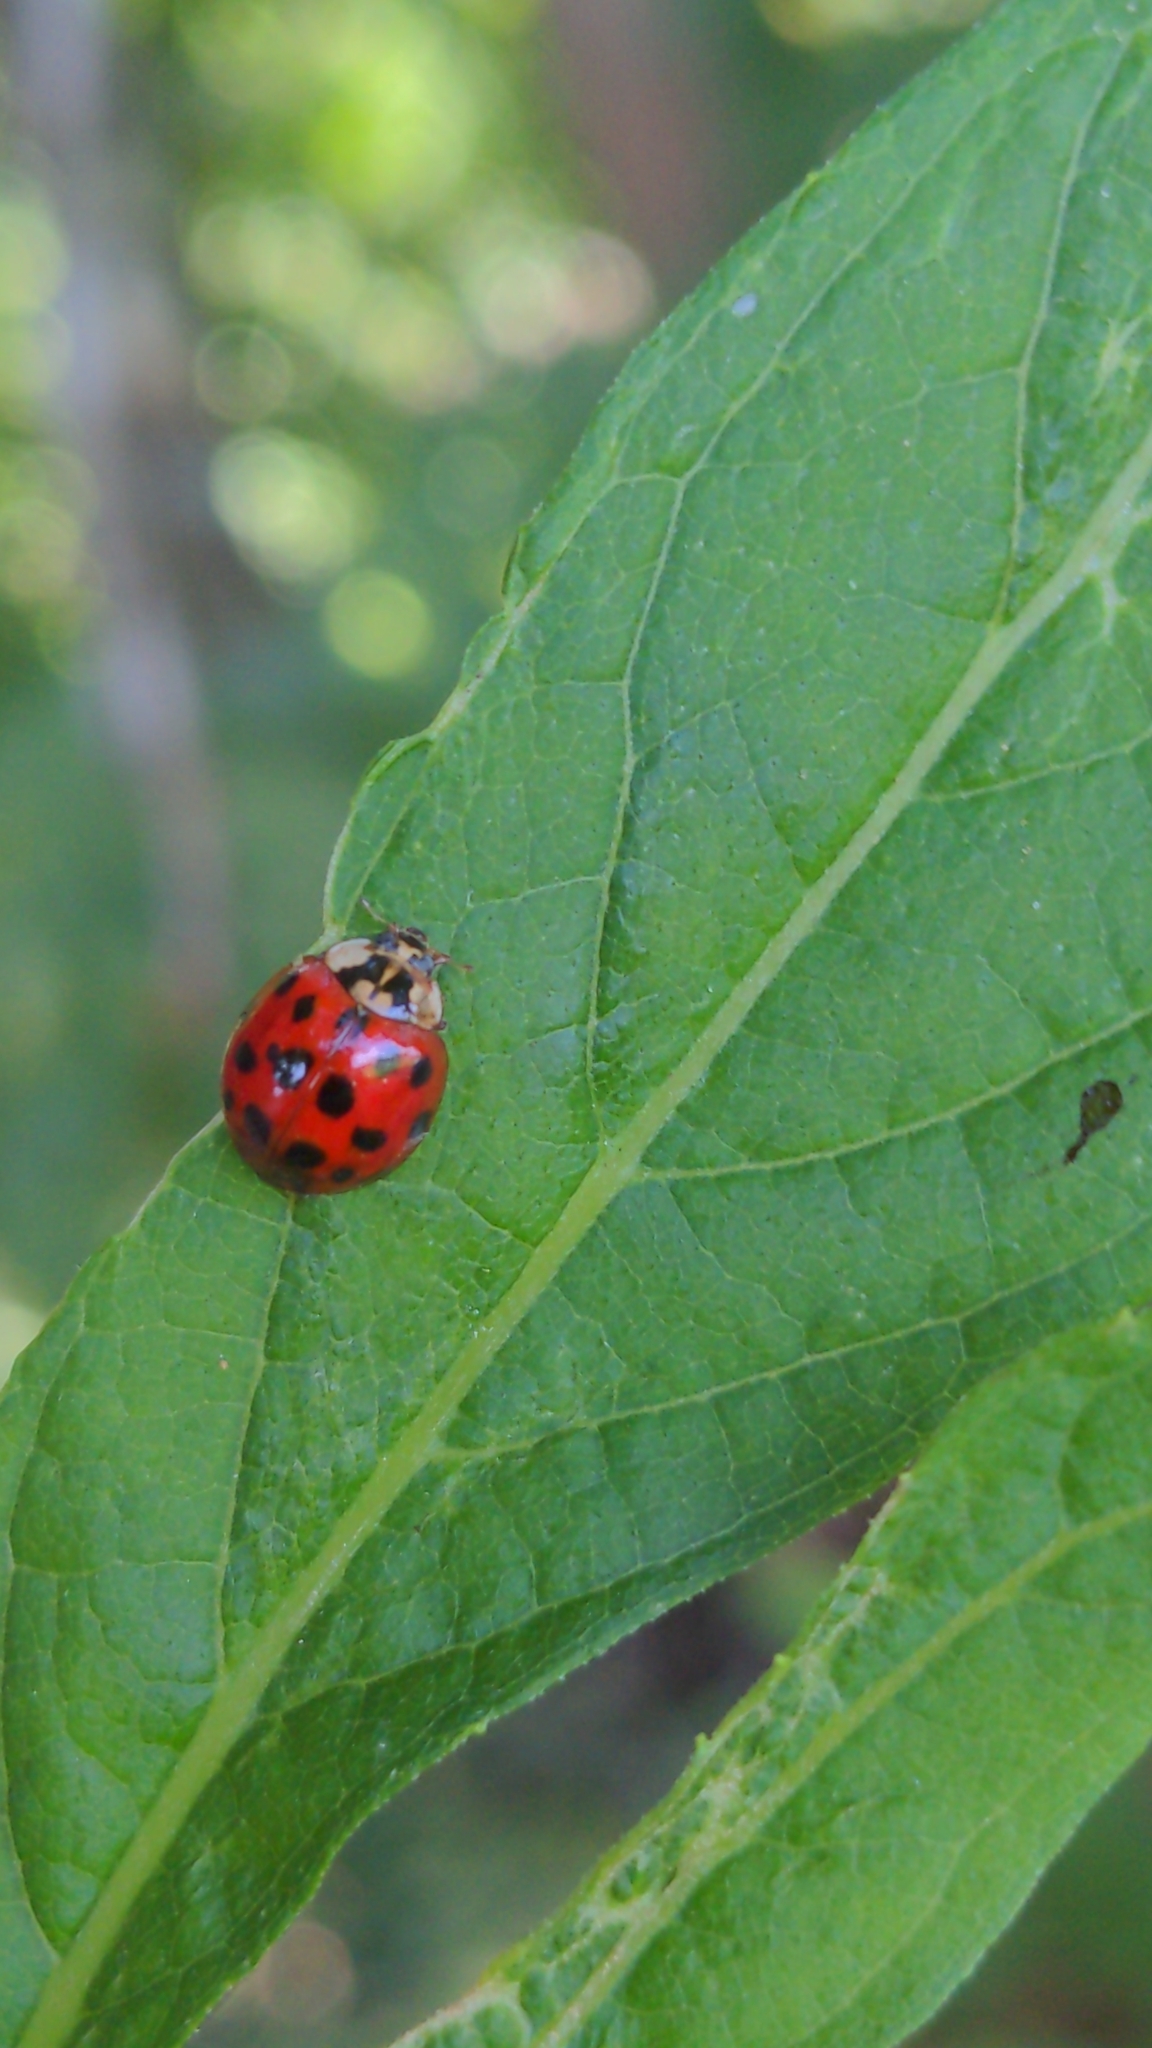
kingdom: Animalia
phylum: Arthropoda
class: Insecta
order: Coleoptera
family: Coccinellidae
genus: Harmonia
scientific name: Harmonia axyridis
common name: Harlequin ladybird
